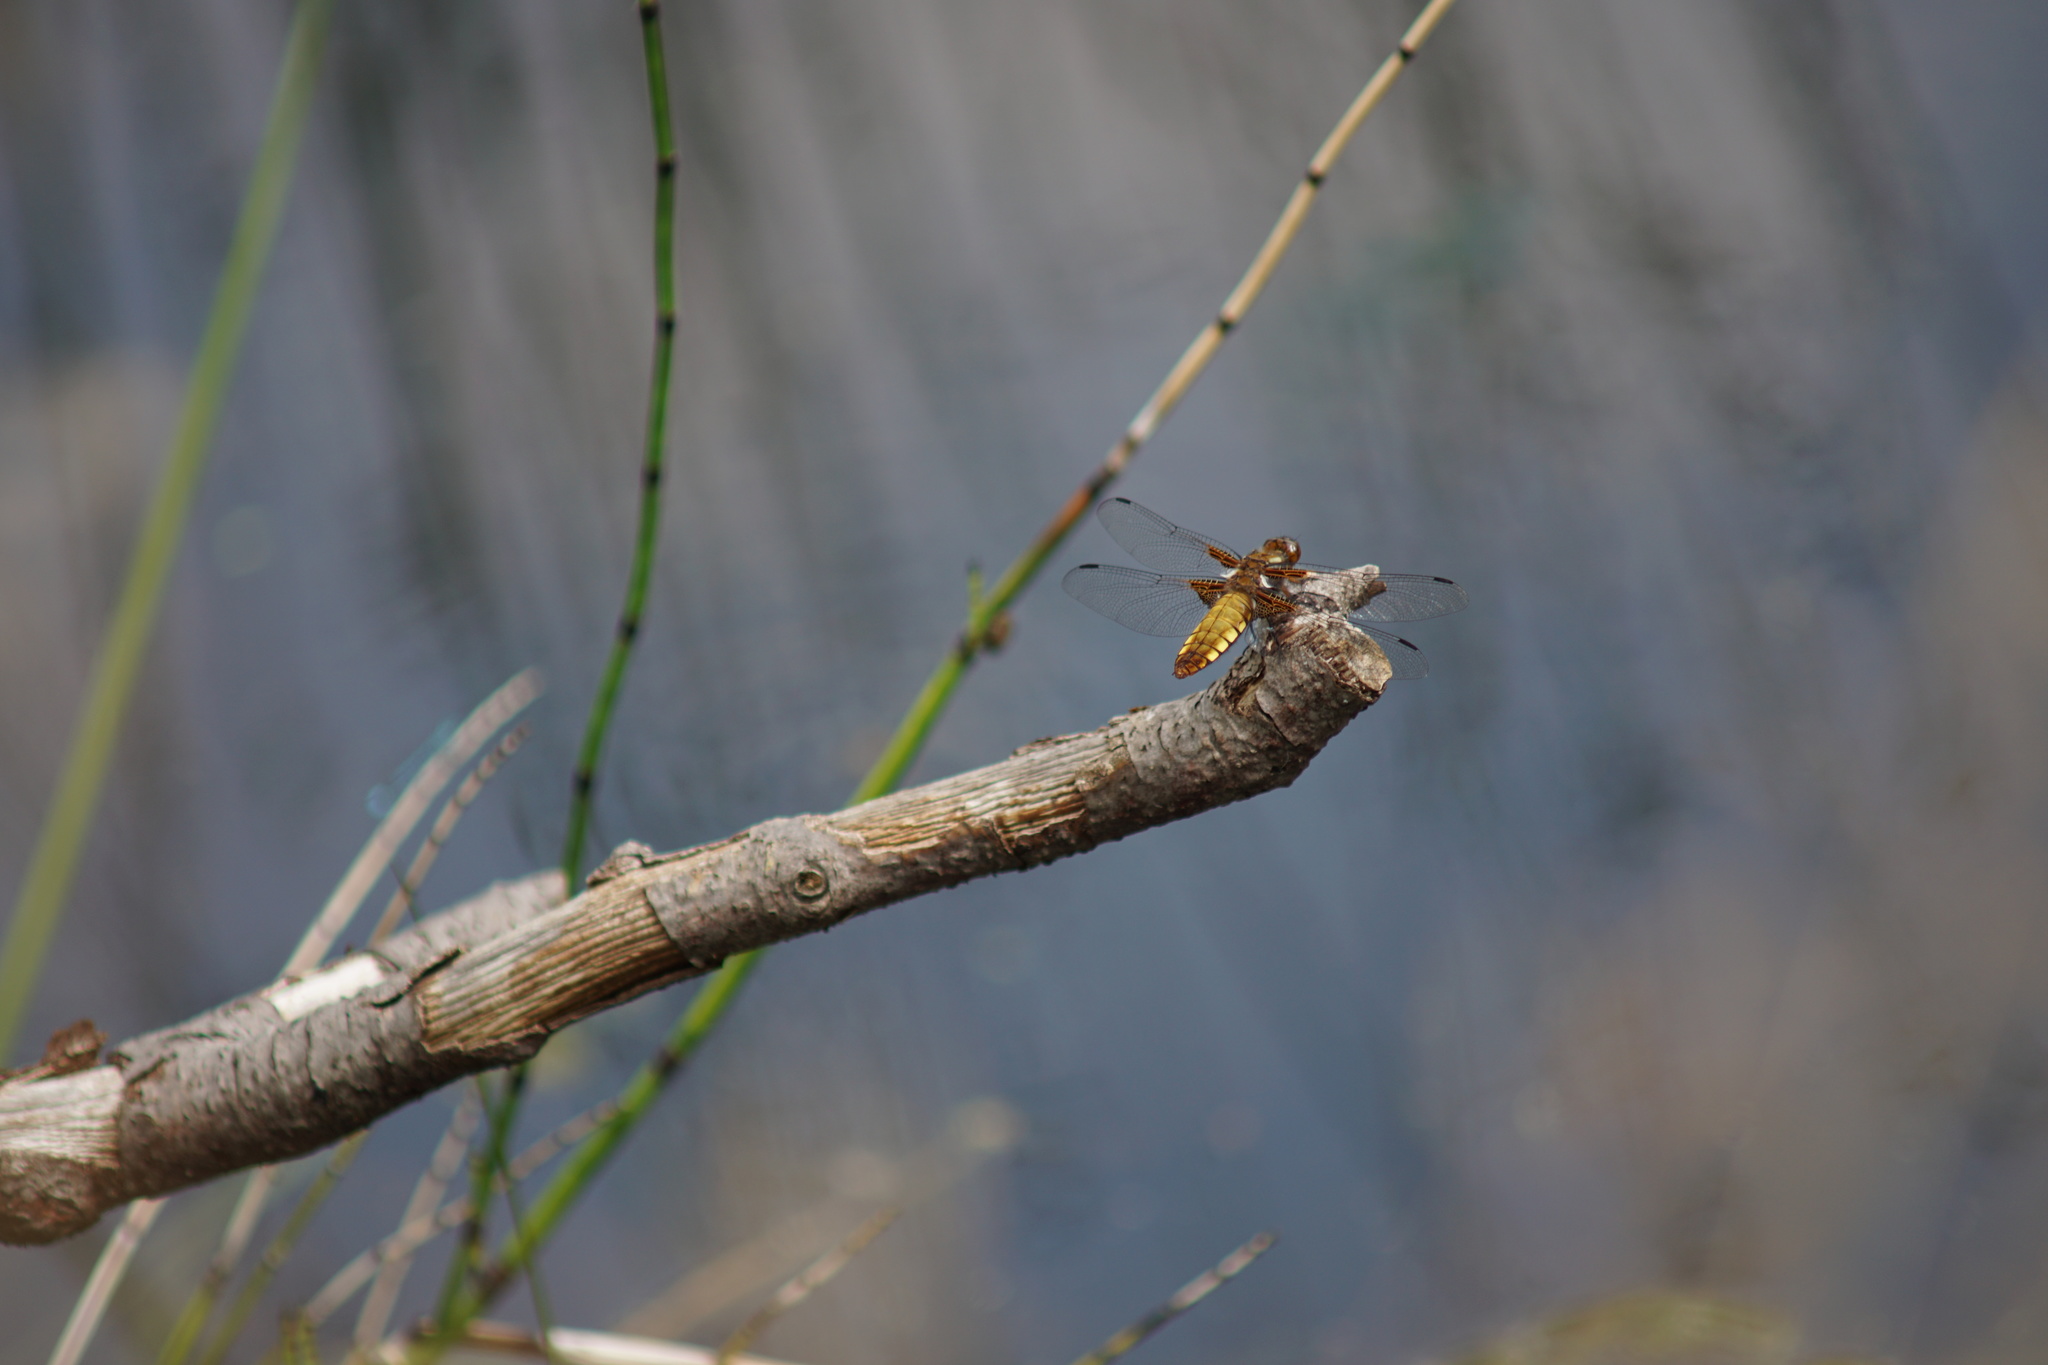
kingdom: Animalia
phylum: Arthropoda
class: Insecta
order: Odonata
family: Libellulidae
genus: Libellula
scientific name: Libellula depressa
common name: Broad-bodied chaser
